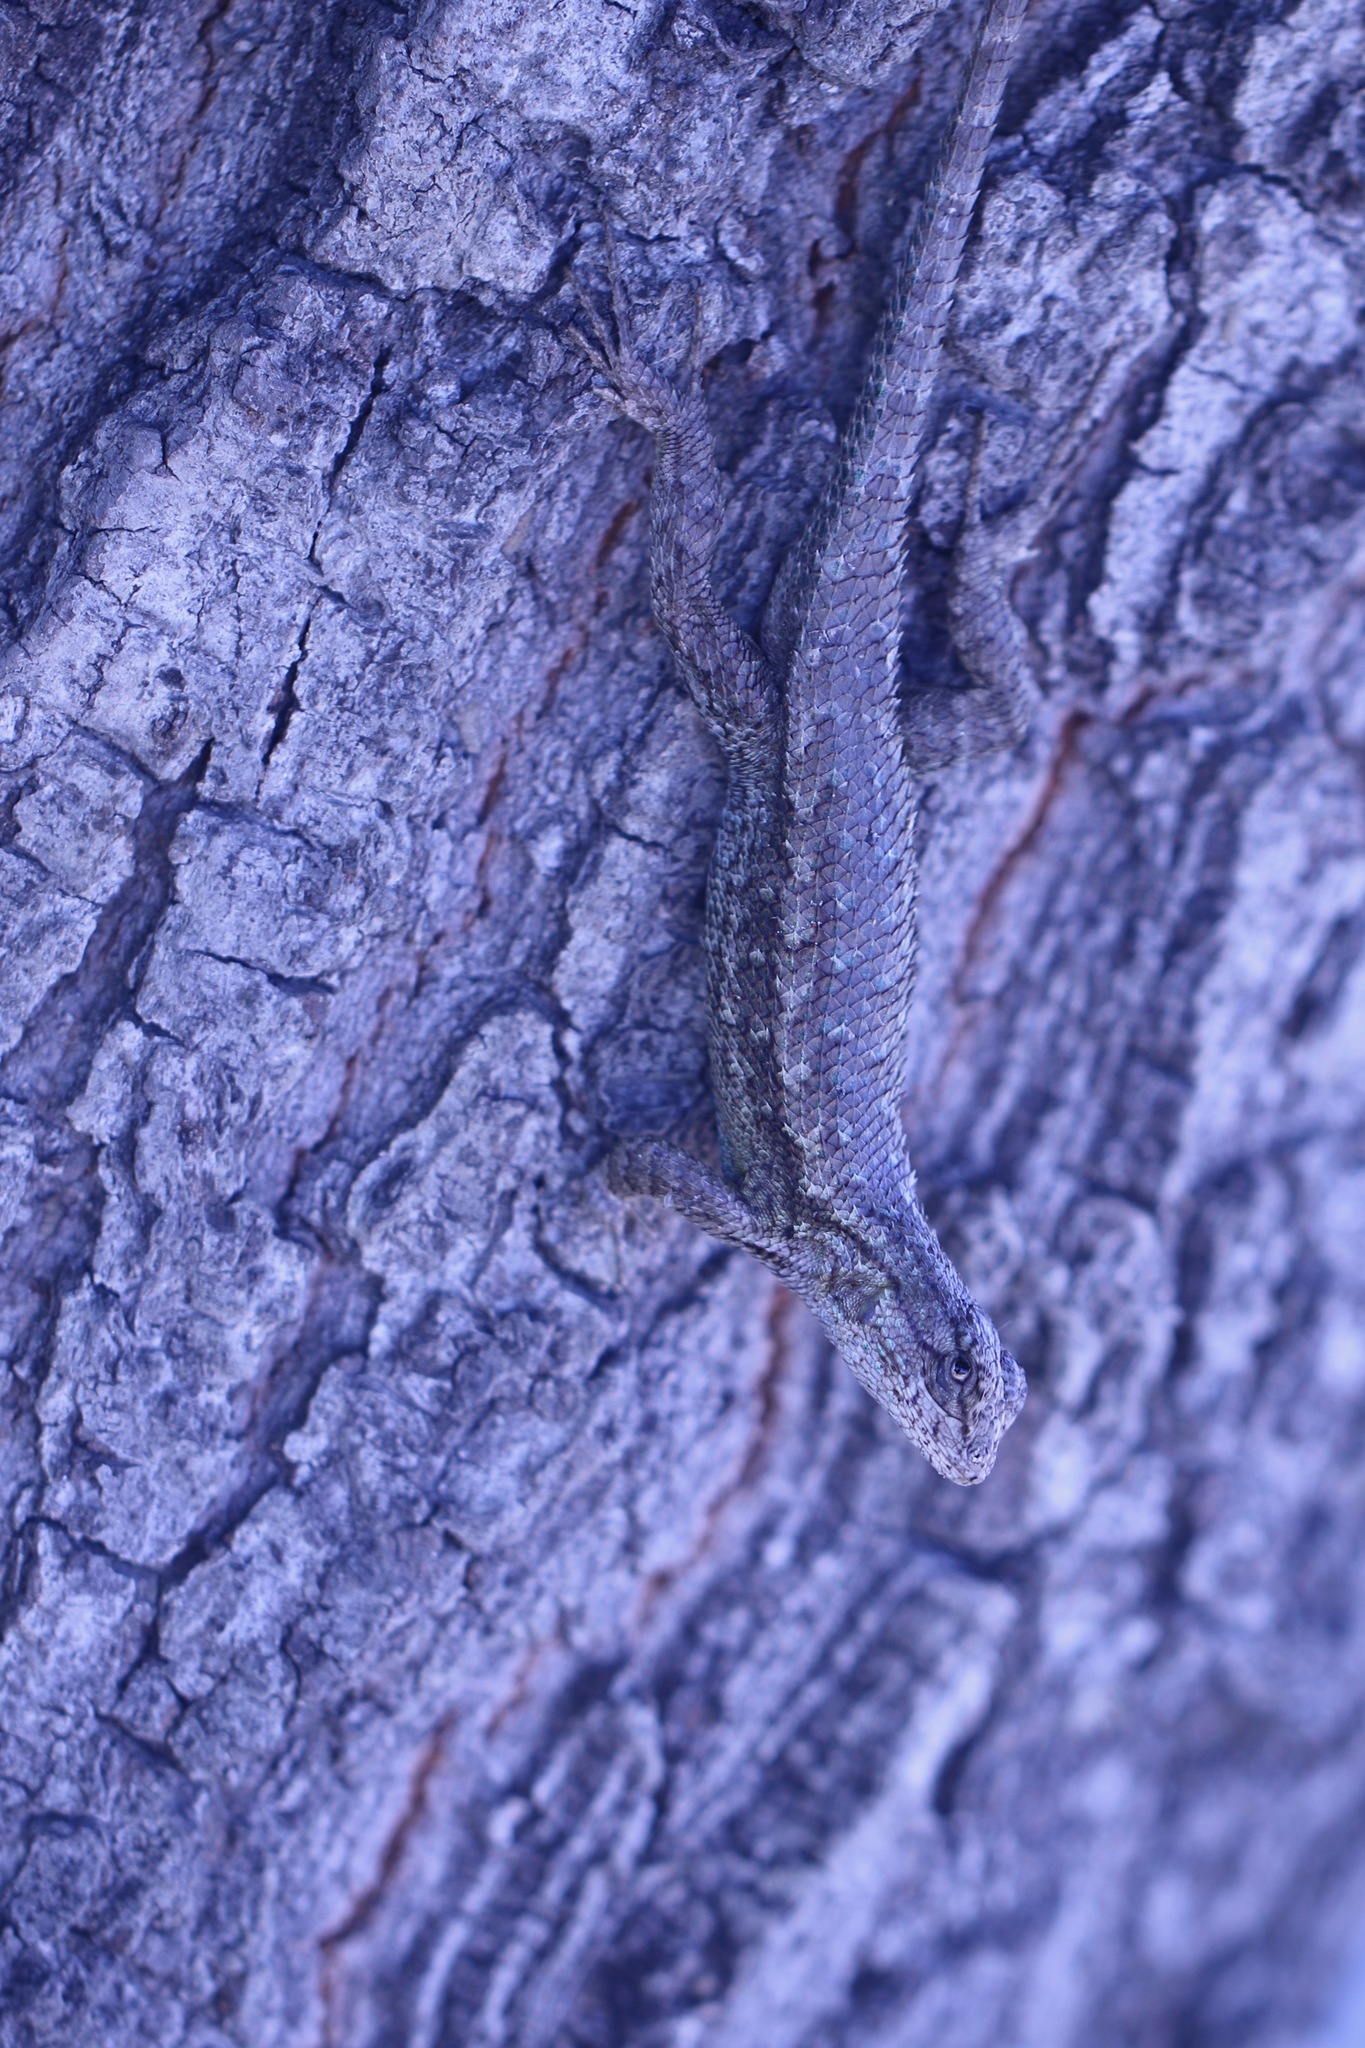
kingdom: Animalia
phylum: Chordata
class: Squamata
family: Phrynosomatidae
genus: Sceloporus
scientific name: Sceloporus occidentalis
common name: Western fence lizard
